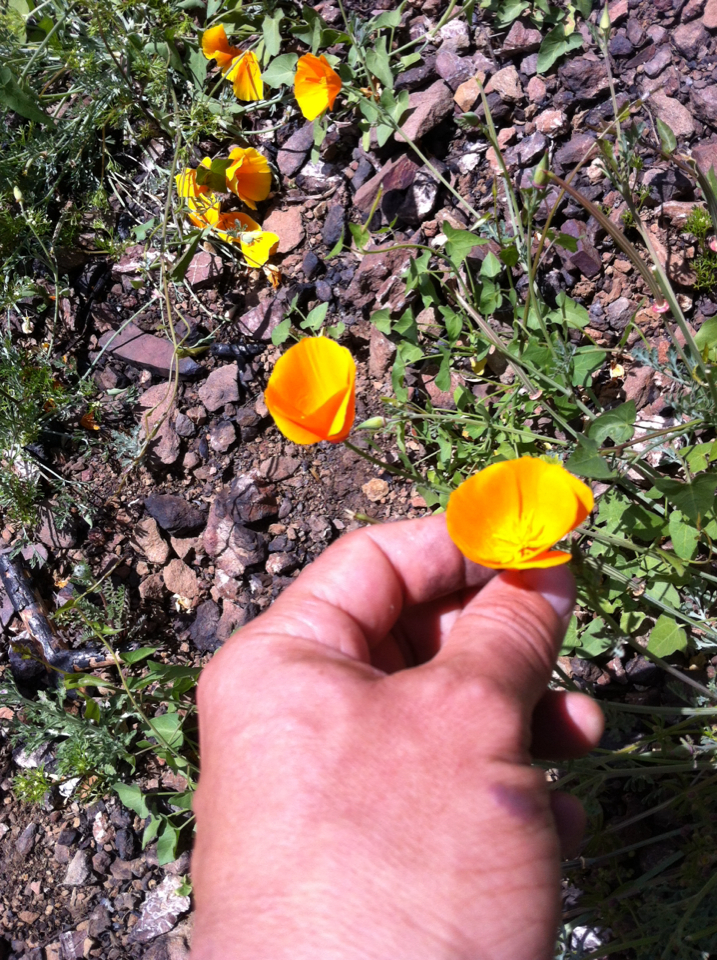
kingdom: Plantae
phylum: Tracheophyta
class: Magnoliopsida
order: Ranunculales
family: Papaveraceae
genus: Eschscholzia
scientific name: Eschscholzia californica
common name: California poppy
